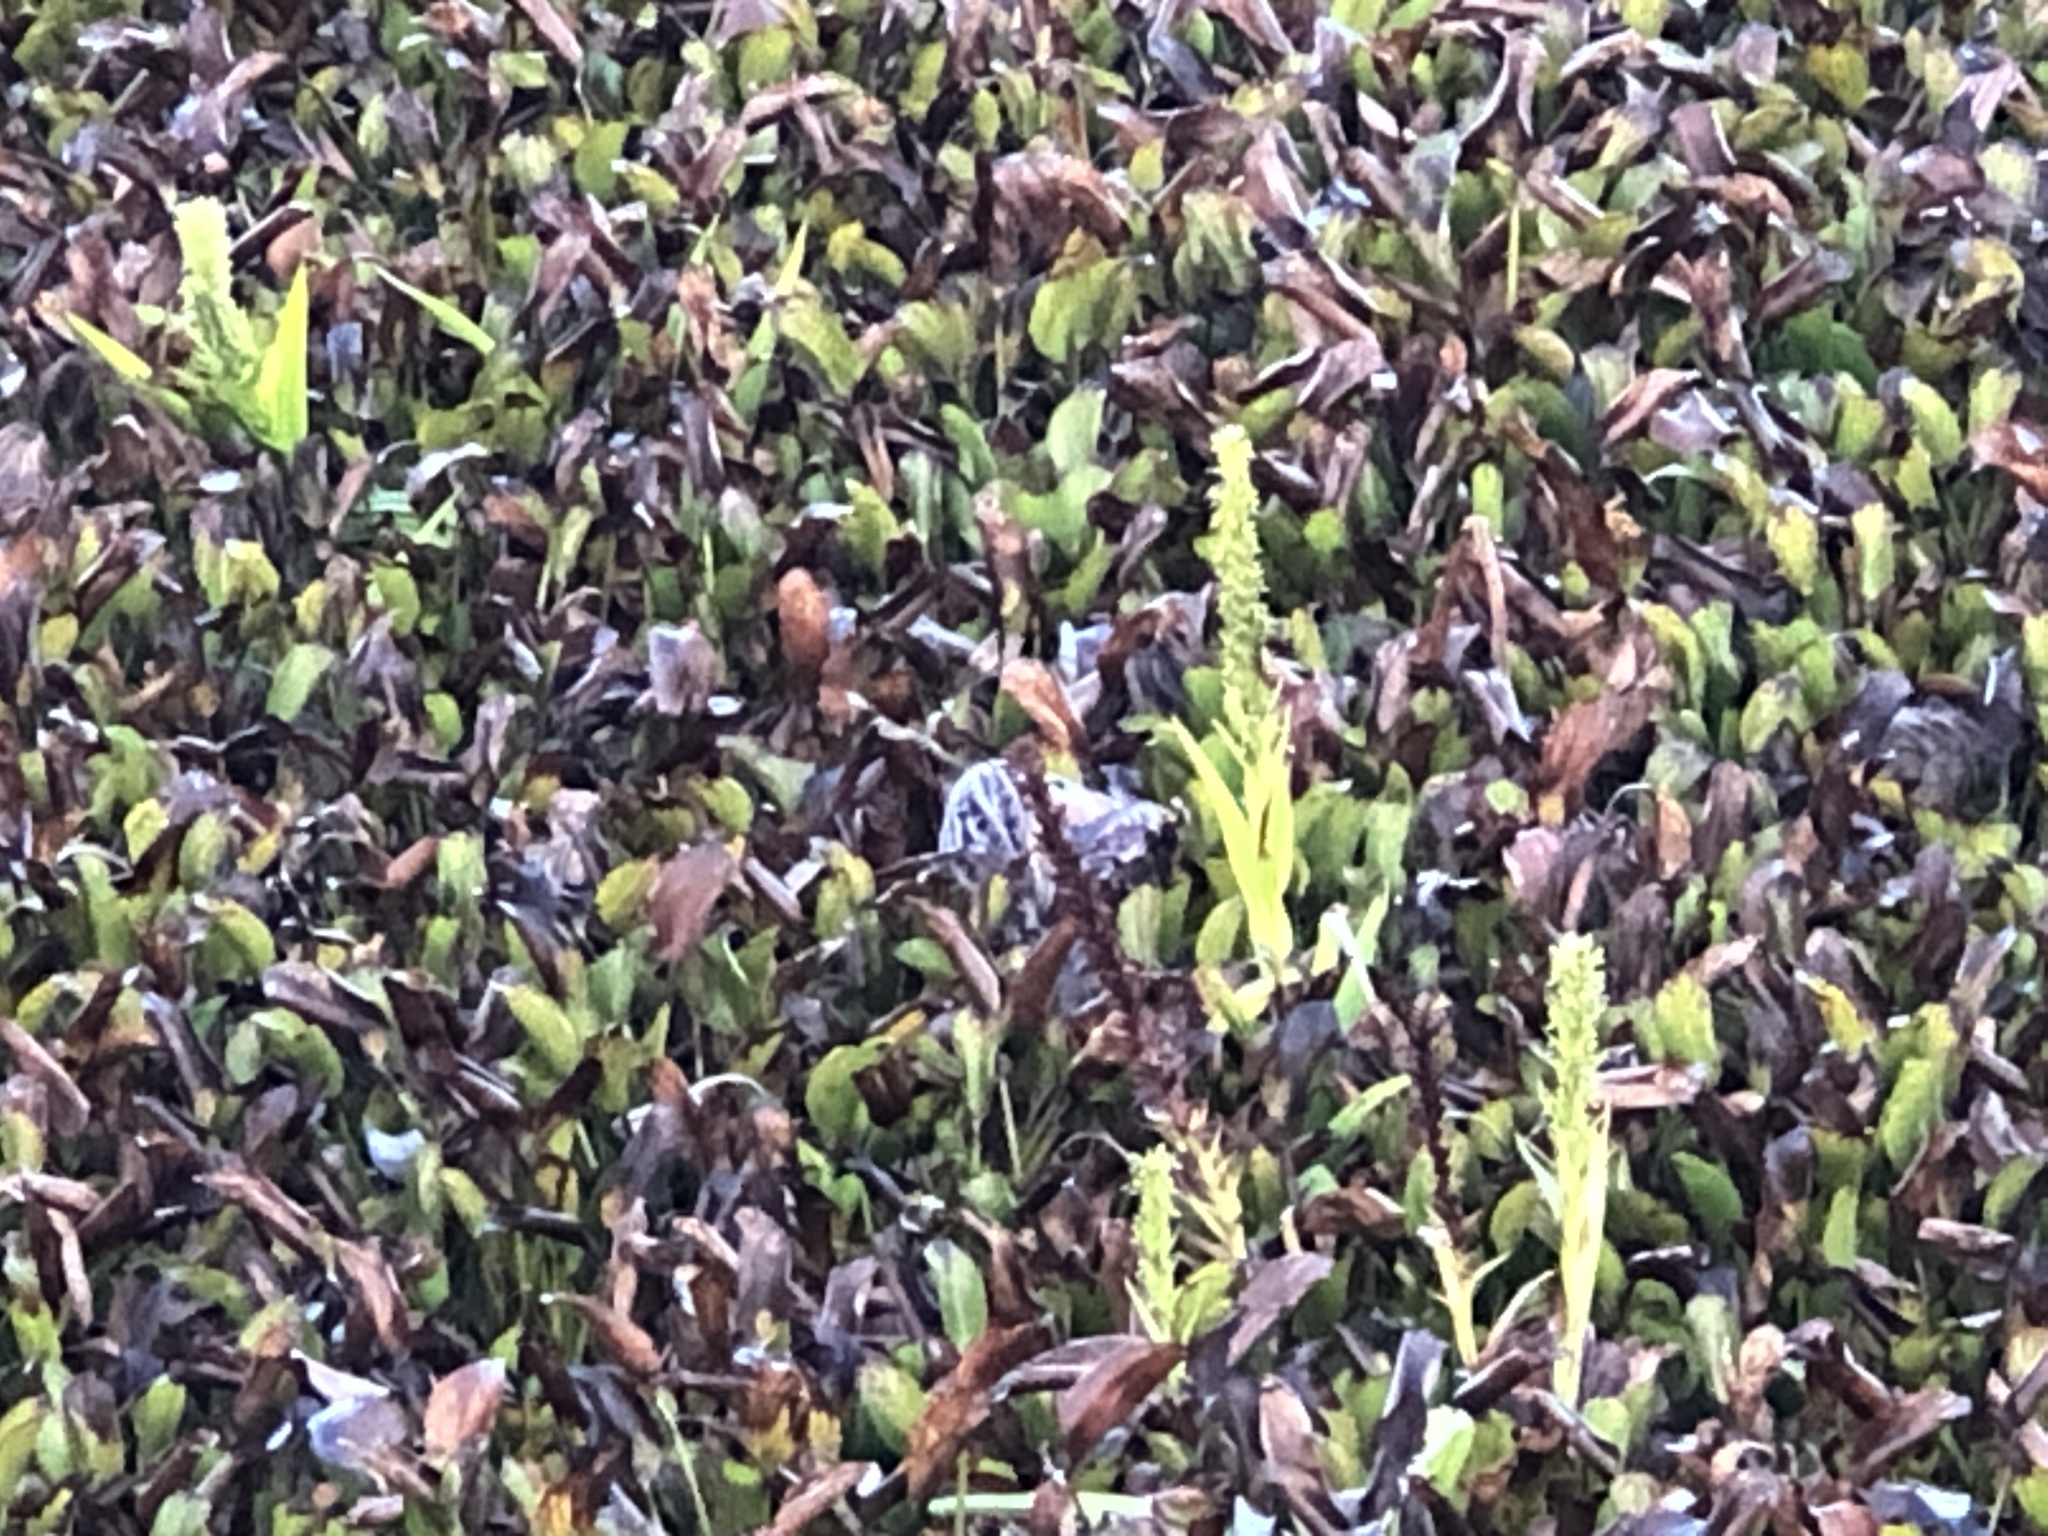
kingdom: Plantae
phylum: Tracheophyta
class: Liliopsida
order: Asparagales
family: Orchidaceae
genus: Habenaria
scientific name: Habenaria repens
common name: Water orchid
